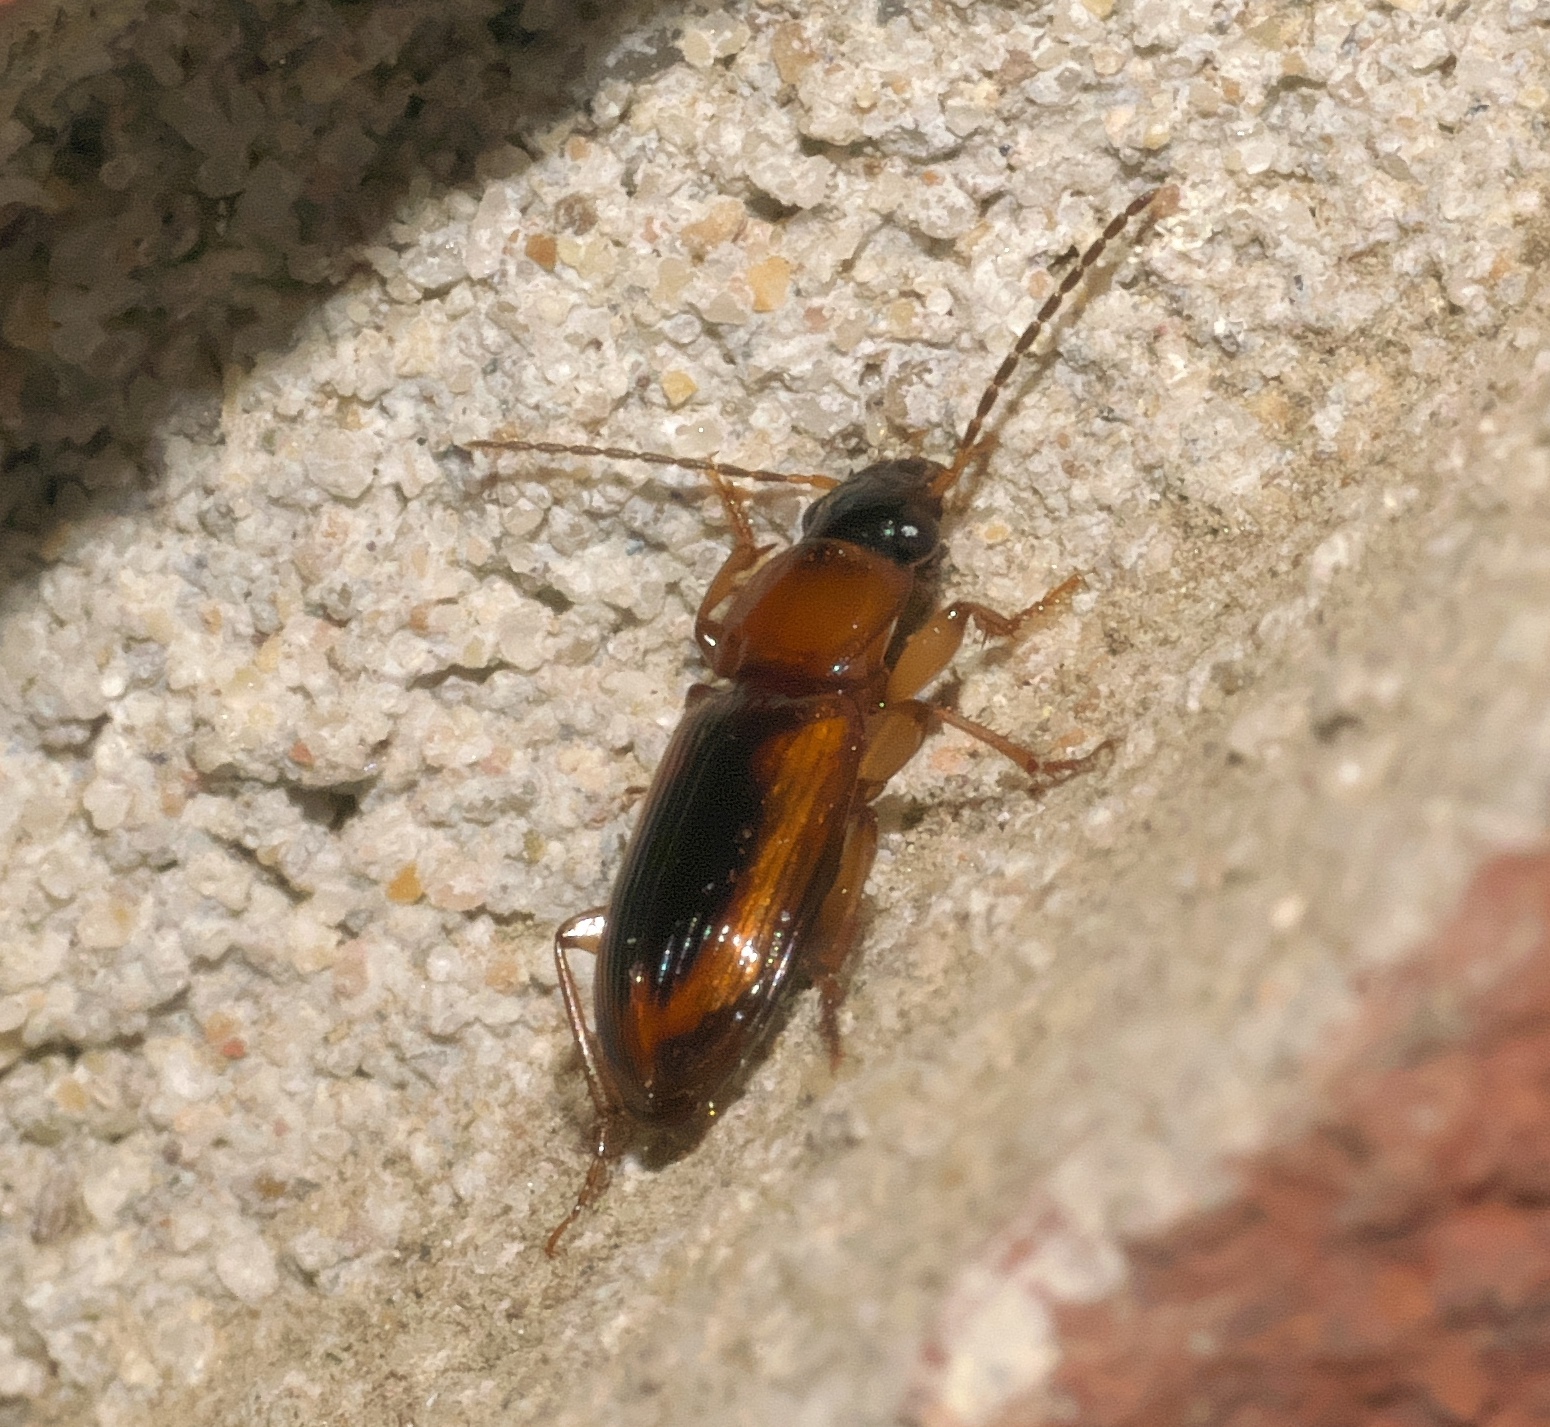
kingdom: Animalia
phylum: Arthropoda
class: Insecta
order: Coleoptera
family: Carabidae
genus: Stenolophus
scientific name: Stenolophus dissimilis
